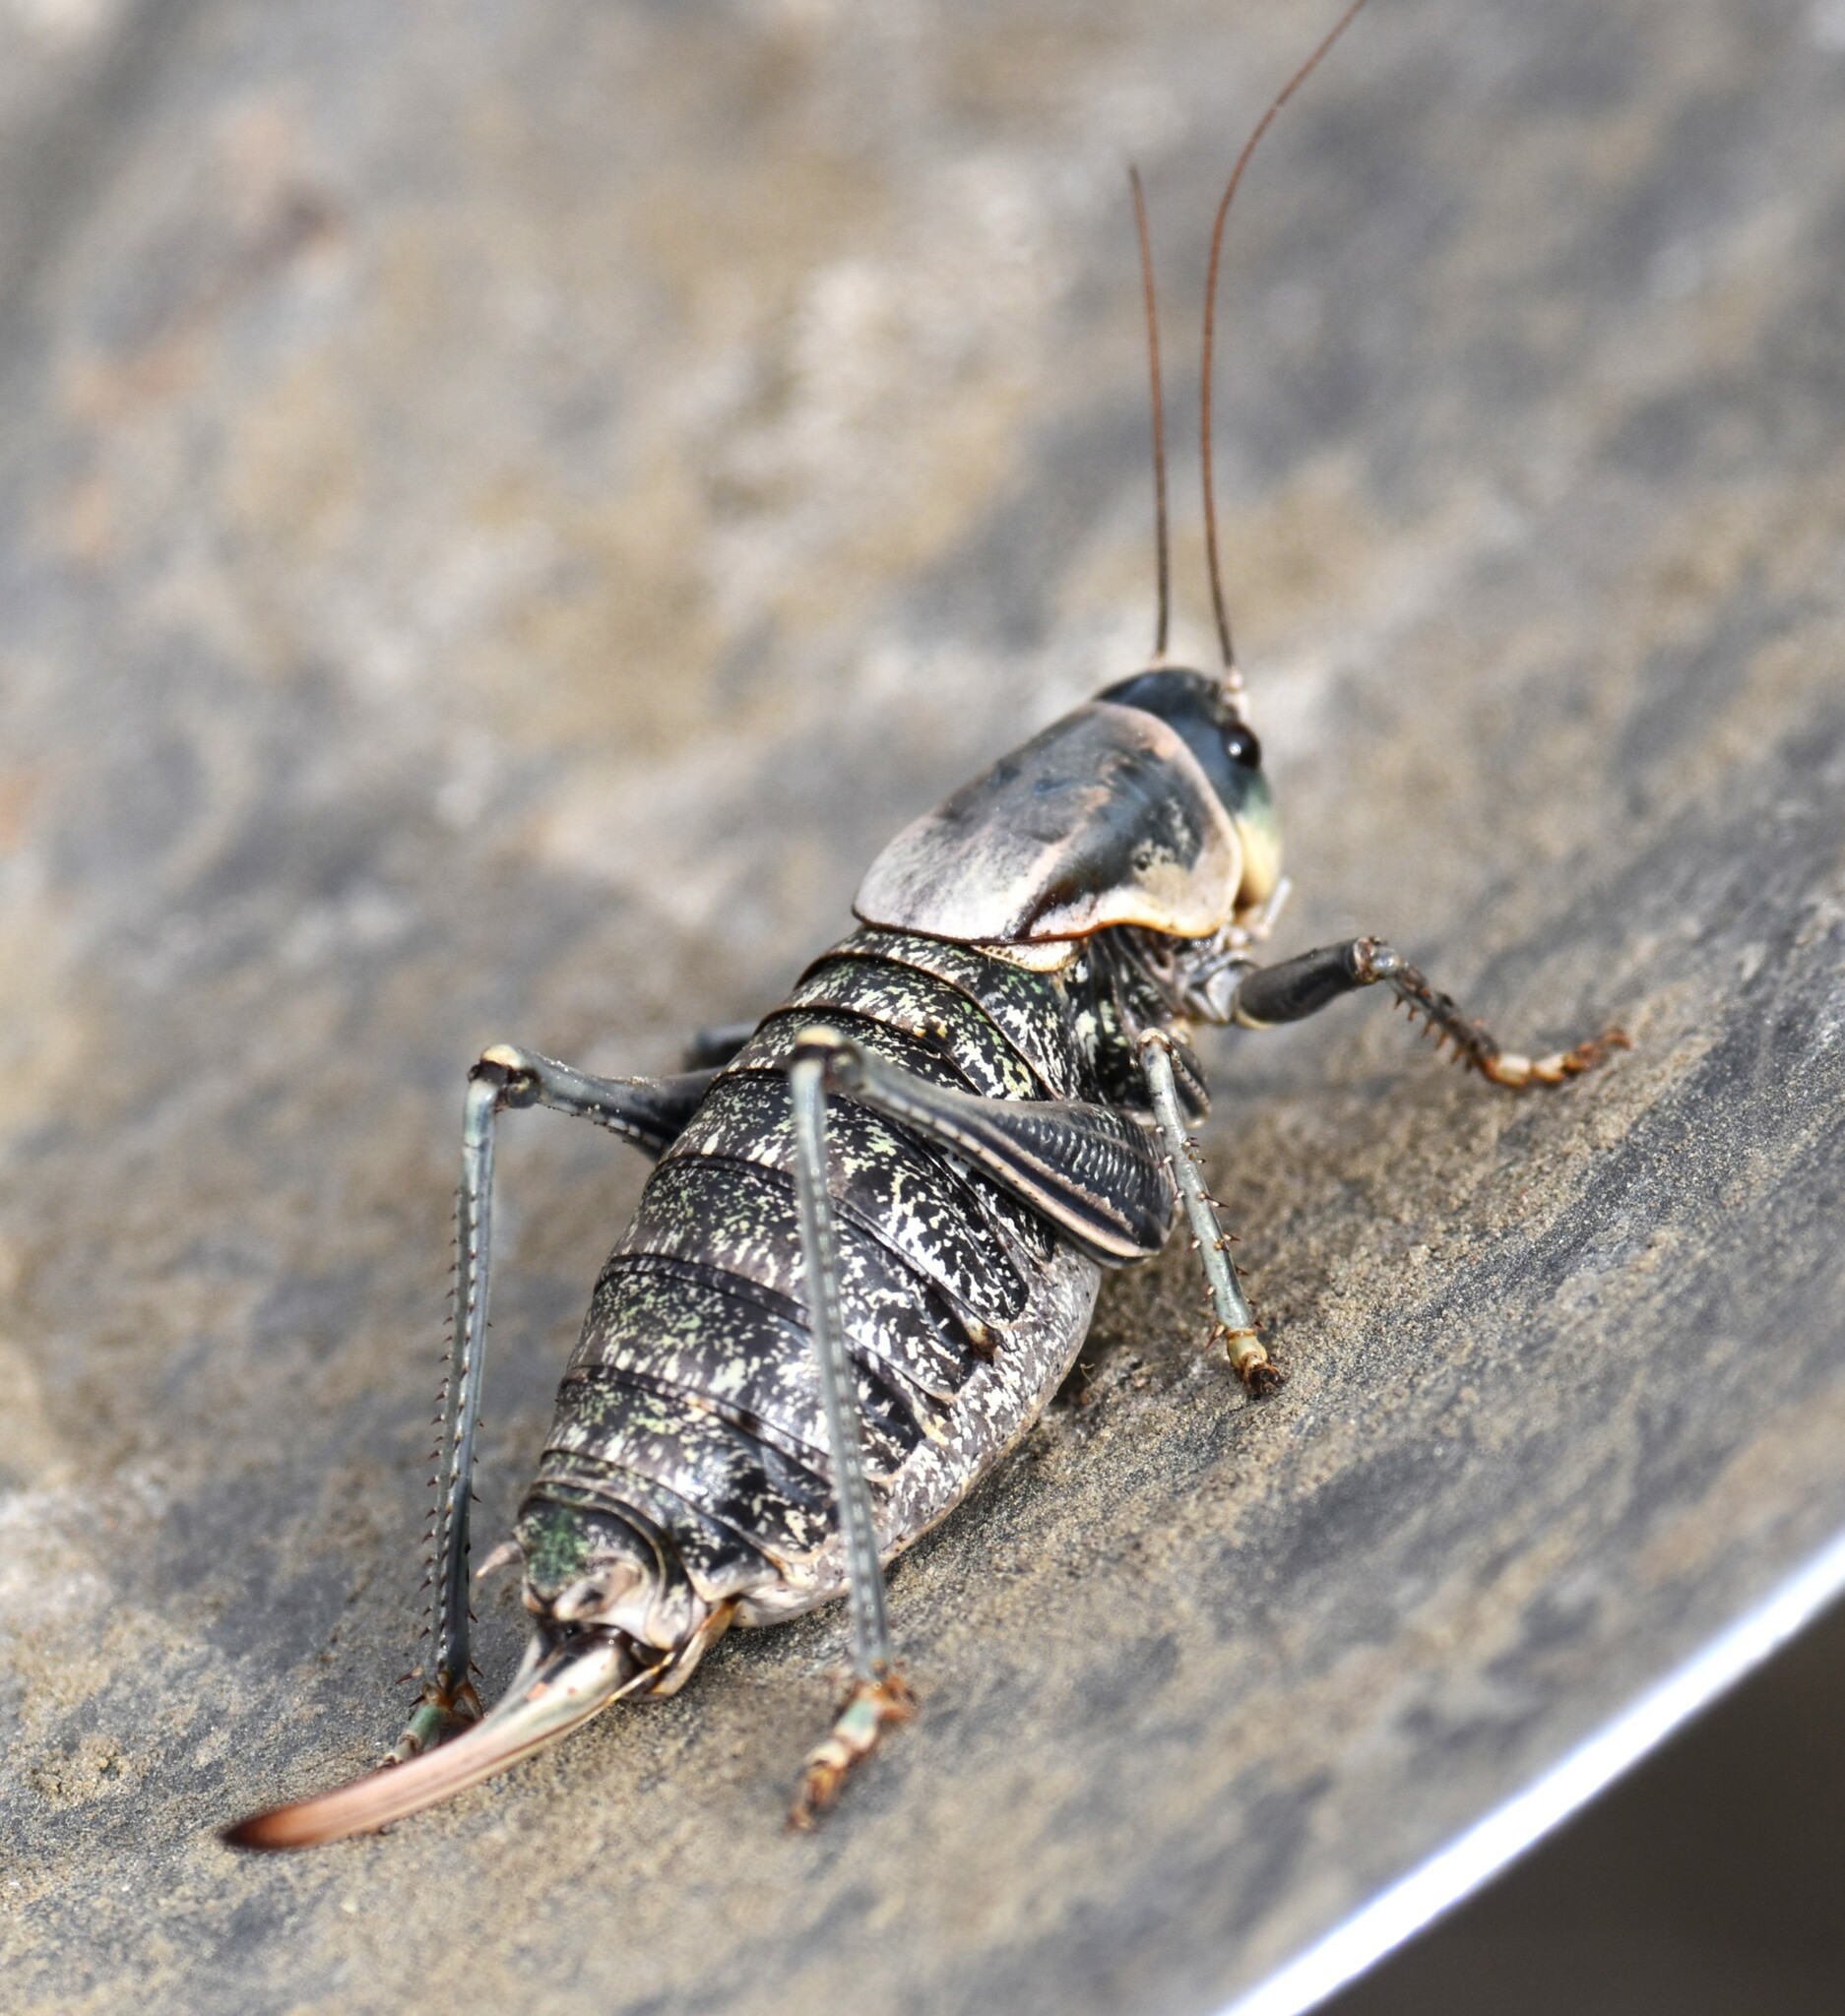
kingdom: Animalia
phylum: Arthropoda
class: Insecta
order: Orthoptera
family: Tettigoniidae
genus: Anabrus
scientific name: Anabrus simplex
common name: Mormon cricket
